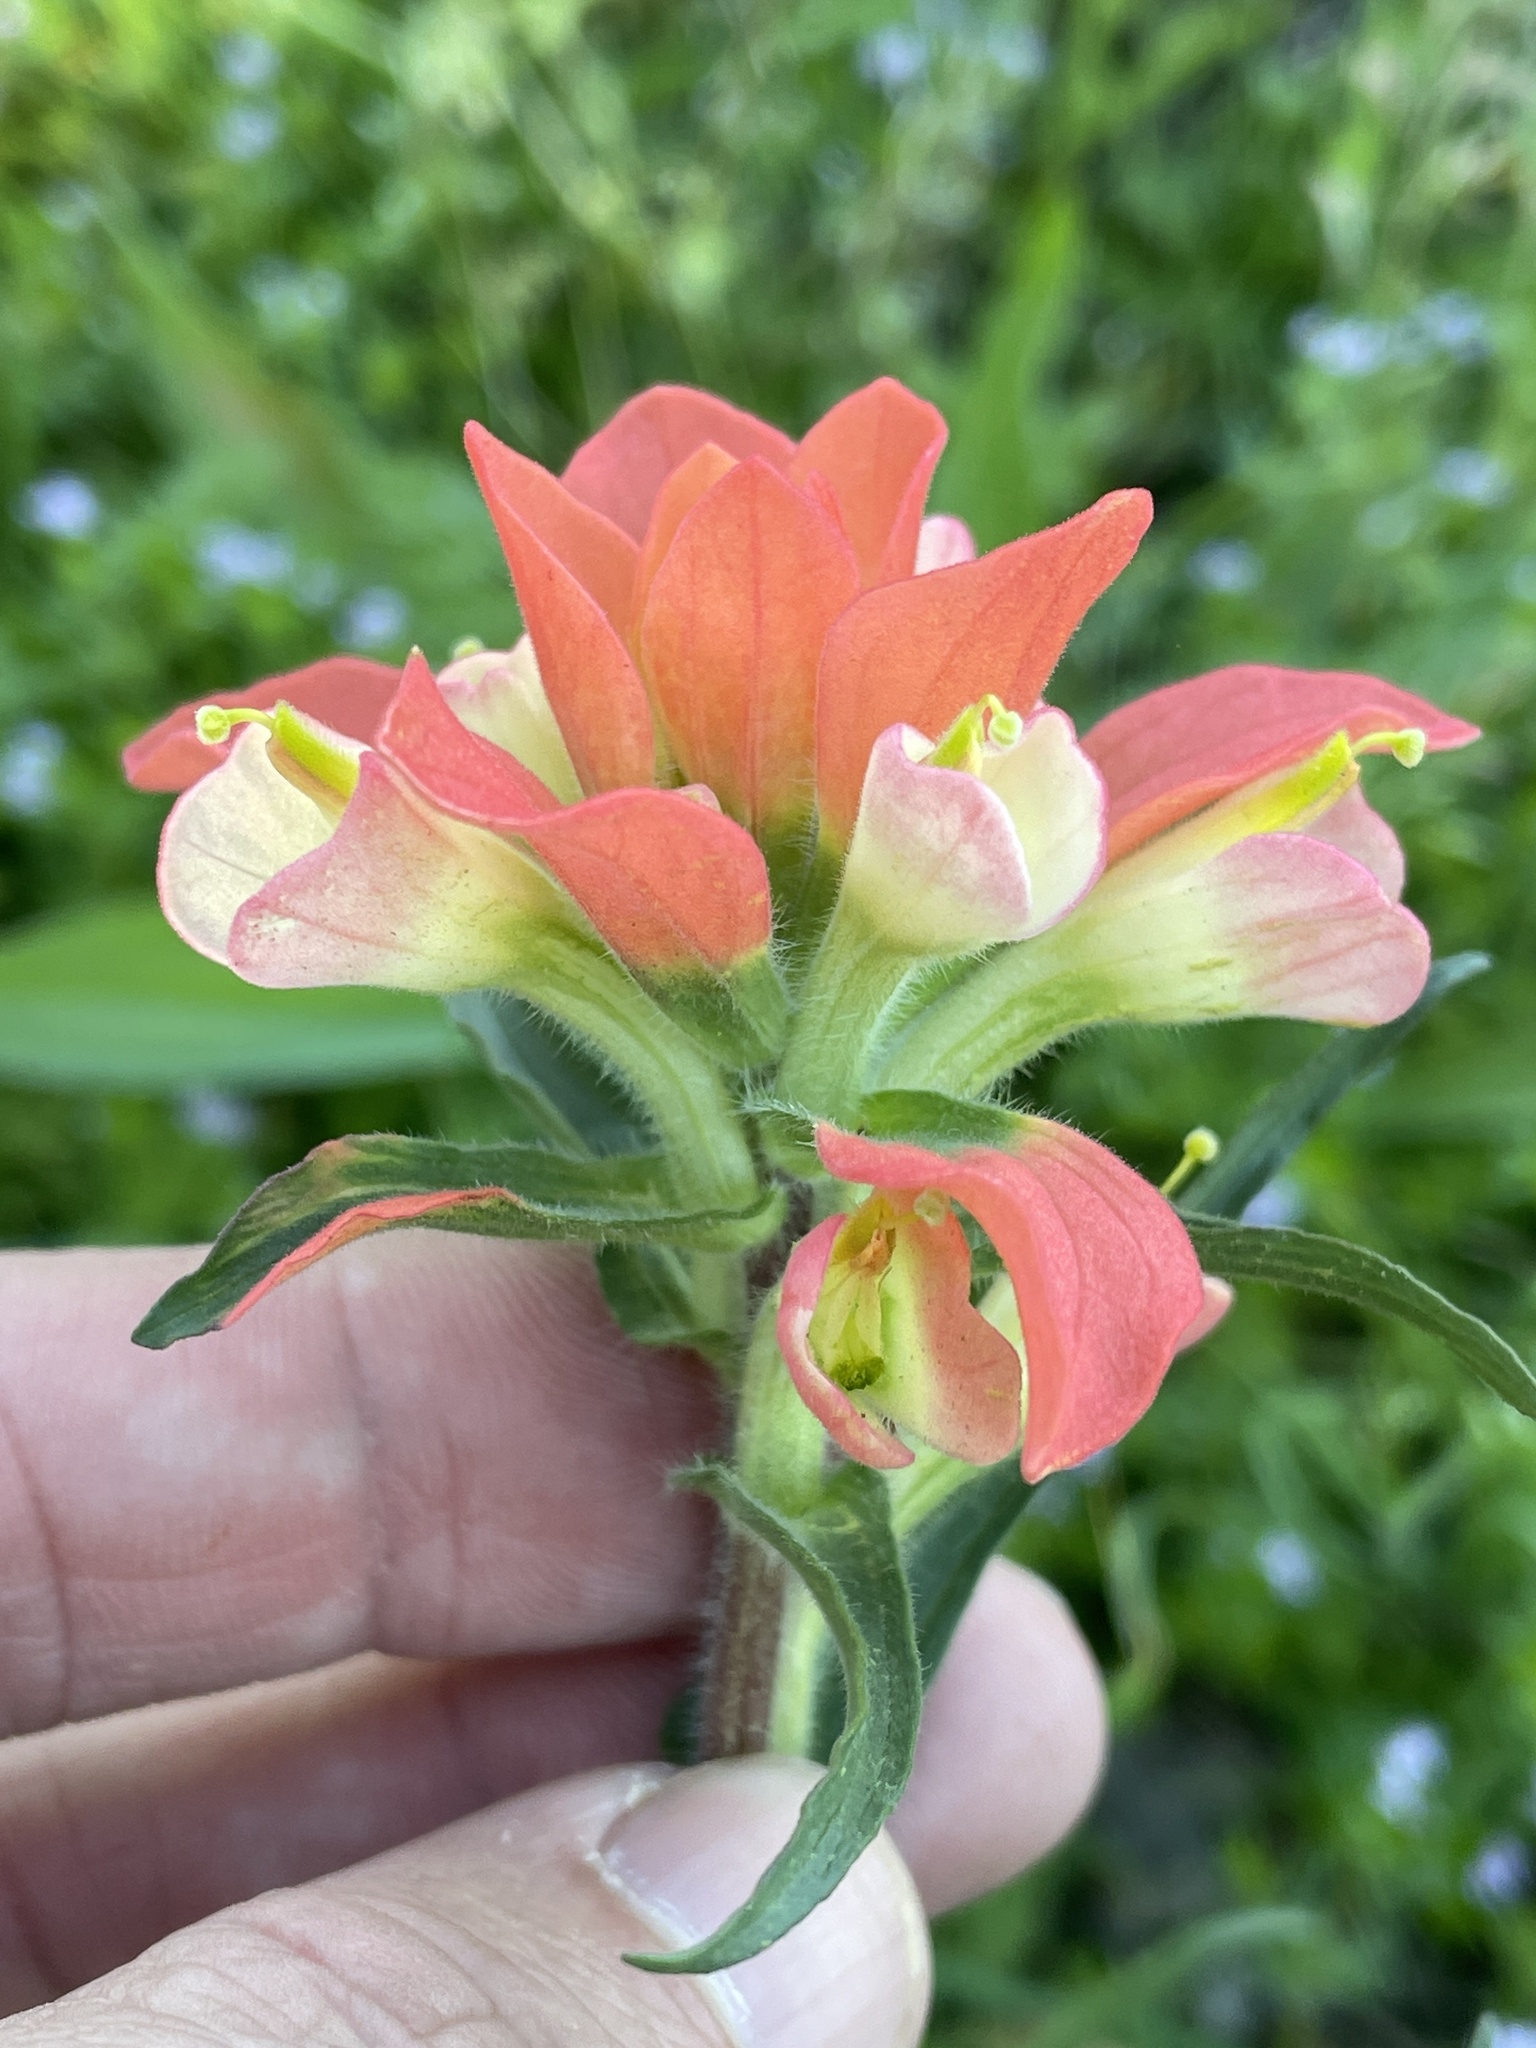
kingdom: Plantae
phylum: Tracheophyta
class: Magnoliopsida
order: Lamiales
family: Orobanchaceae
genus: Castilleja
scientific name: Castilleja indivisa
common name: Texas paintbrush
